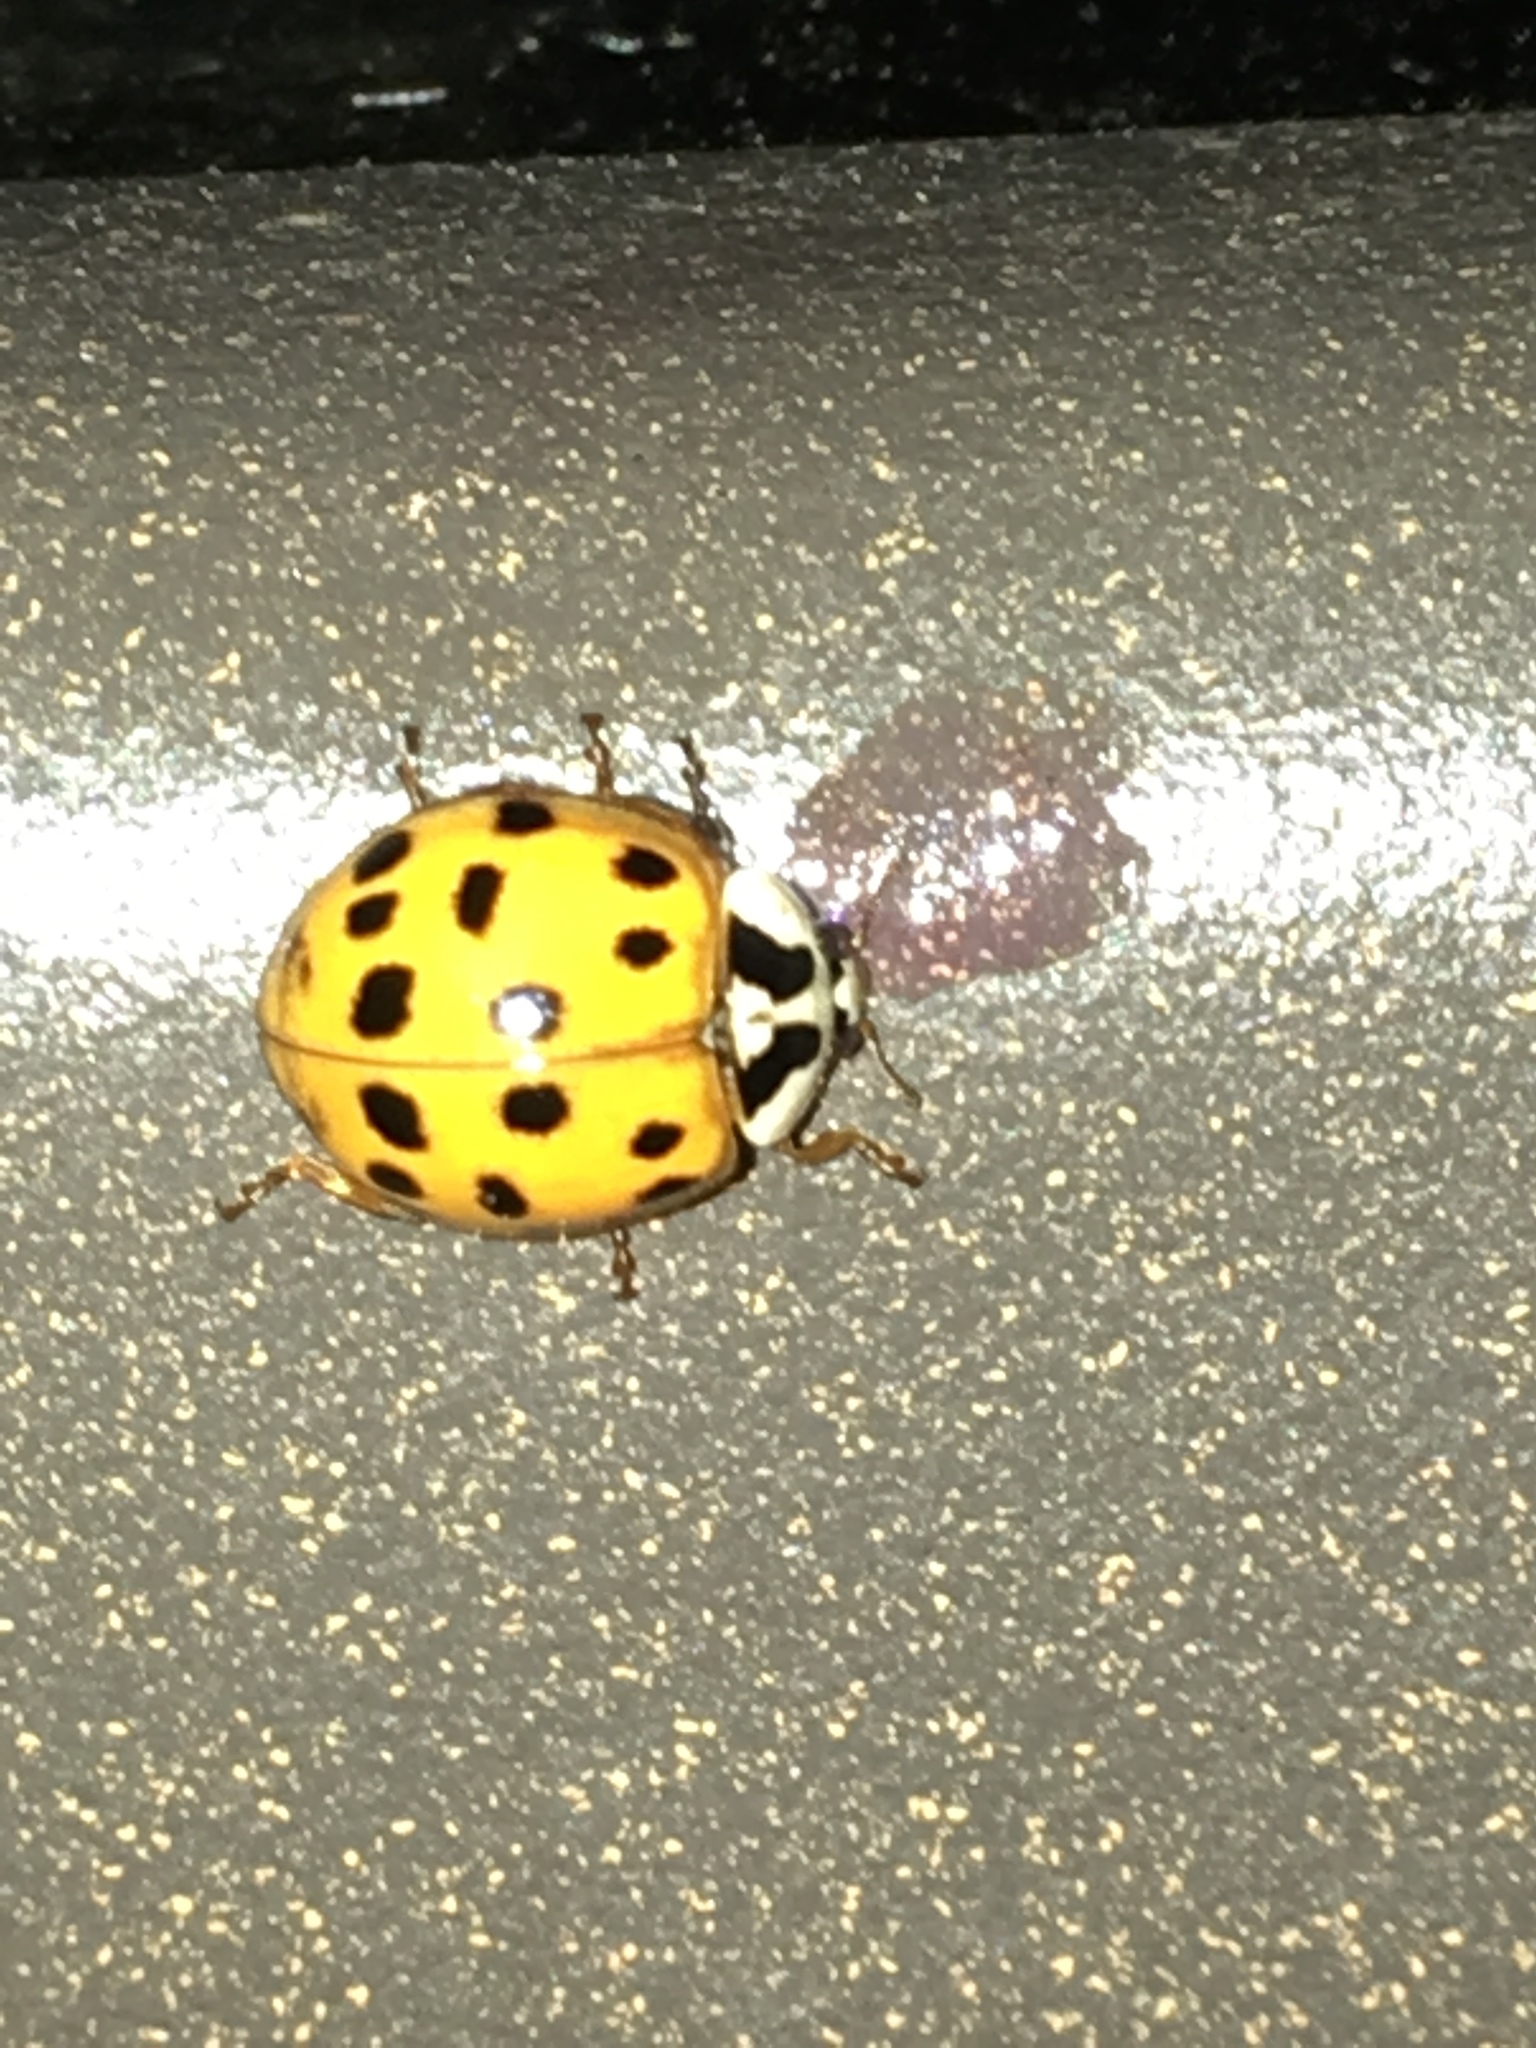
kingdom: Animalia
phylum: Arthropoda
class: Insecta
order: Coleoptera
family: Coccinellidae
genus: Harmonia
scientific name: Harmonia axyridis
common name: Harlequin ladybird
